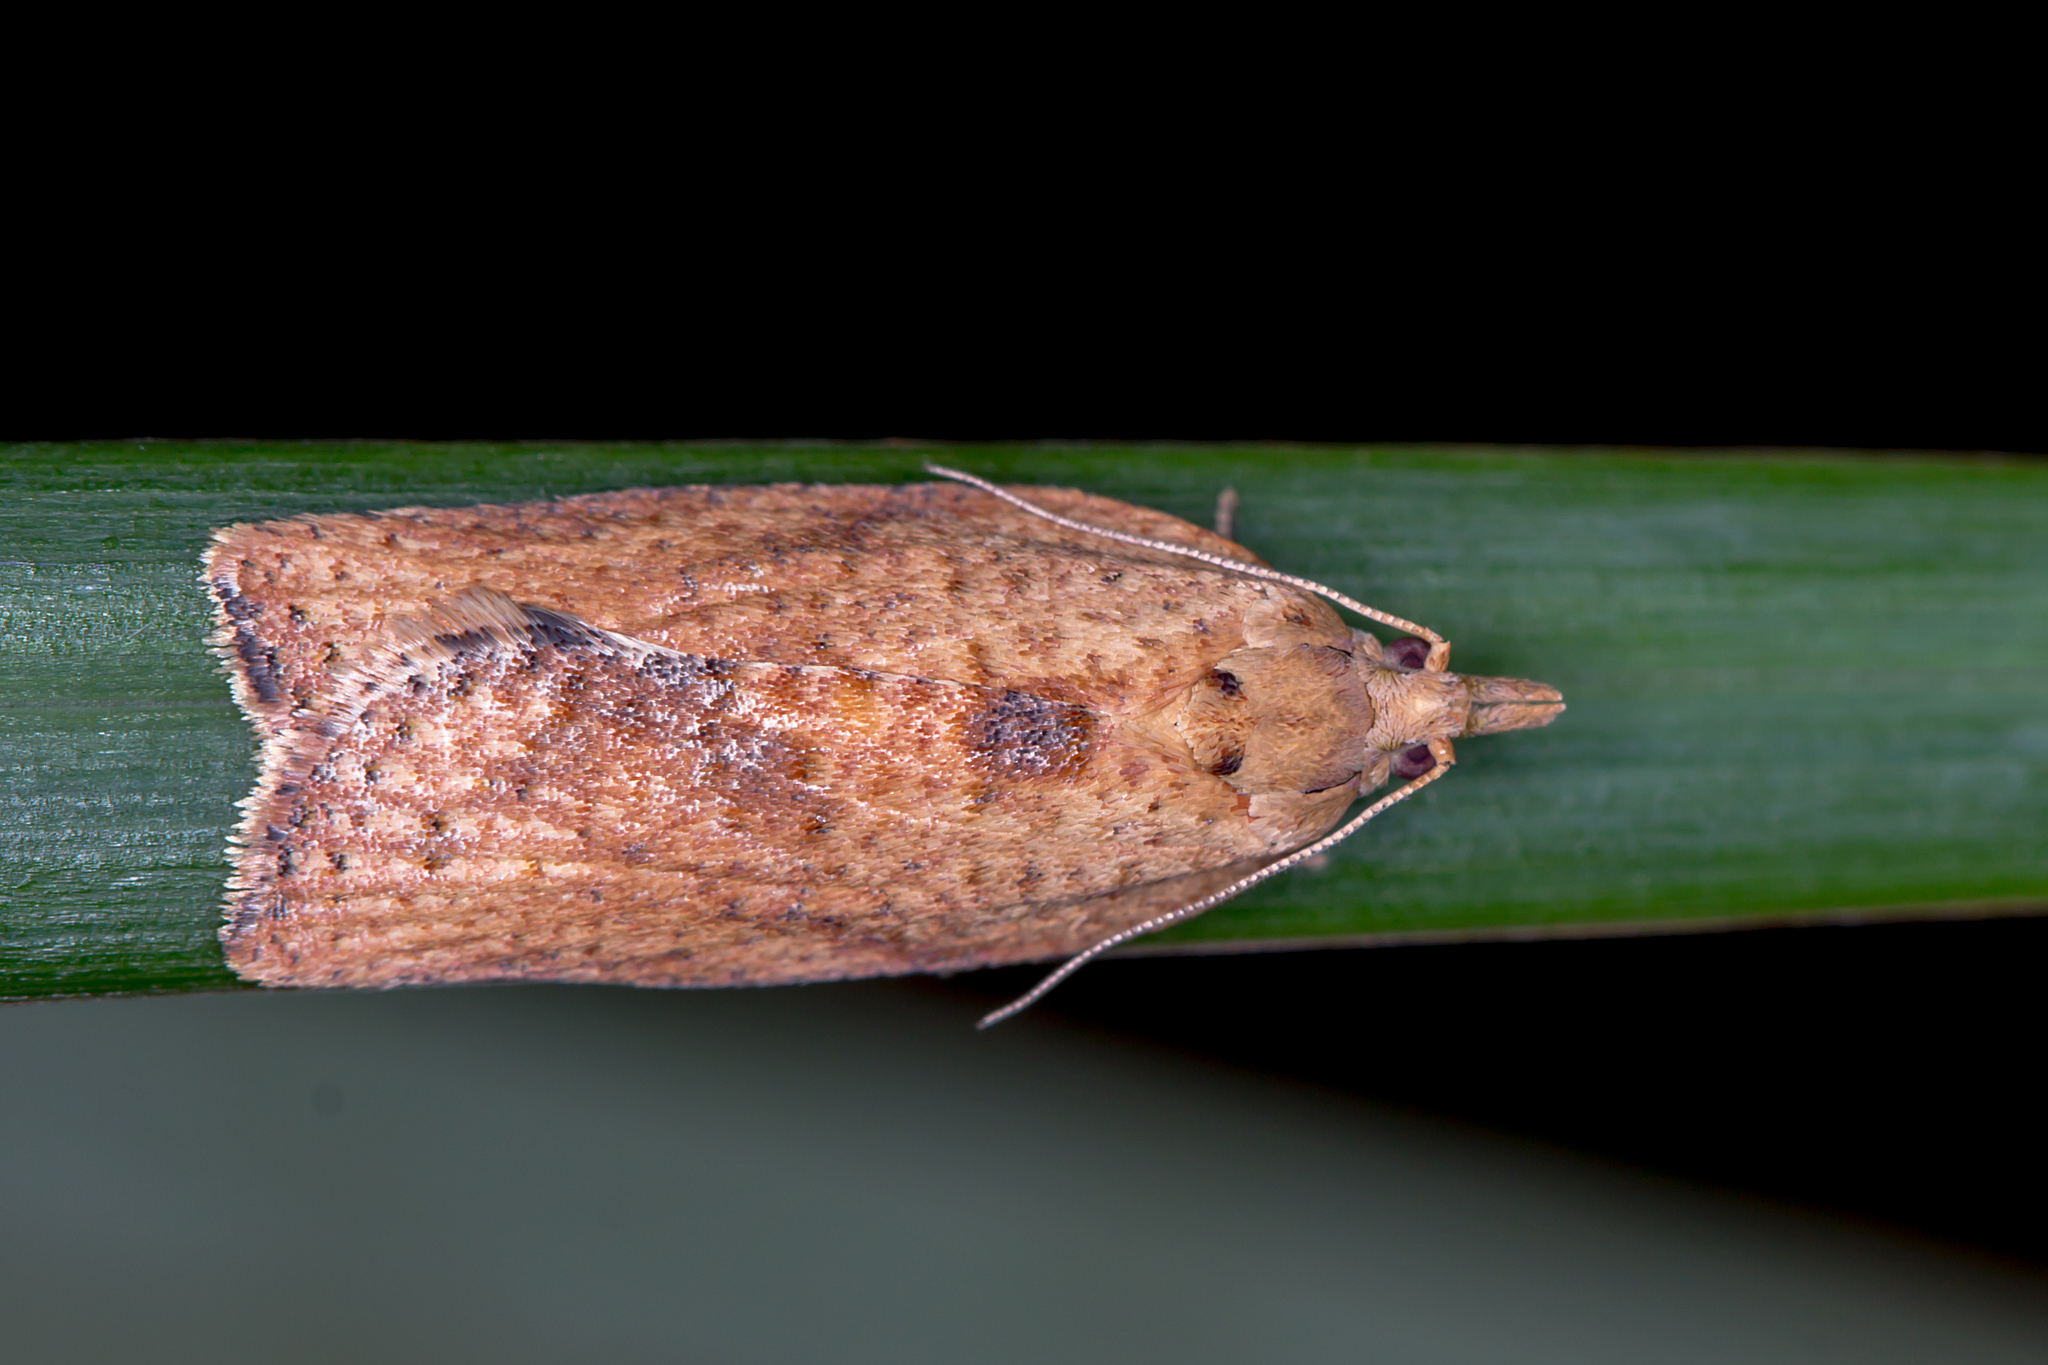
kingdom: Animalia
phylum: Arthropoda
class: Insecta
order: Lepidoptera
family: Tortricidae
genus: Meritastis
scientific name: Meritastis laganodes
